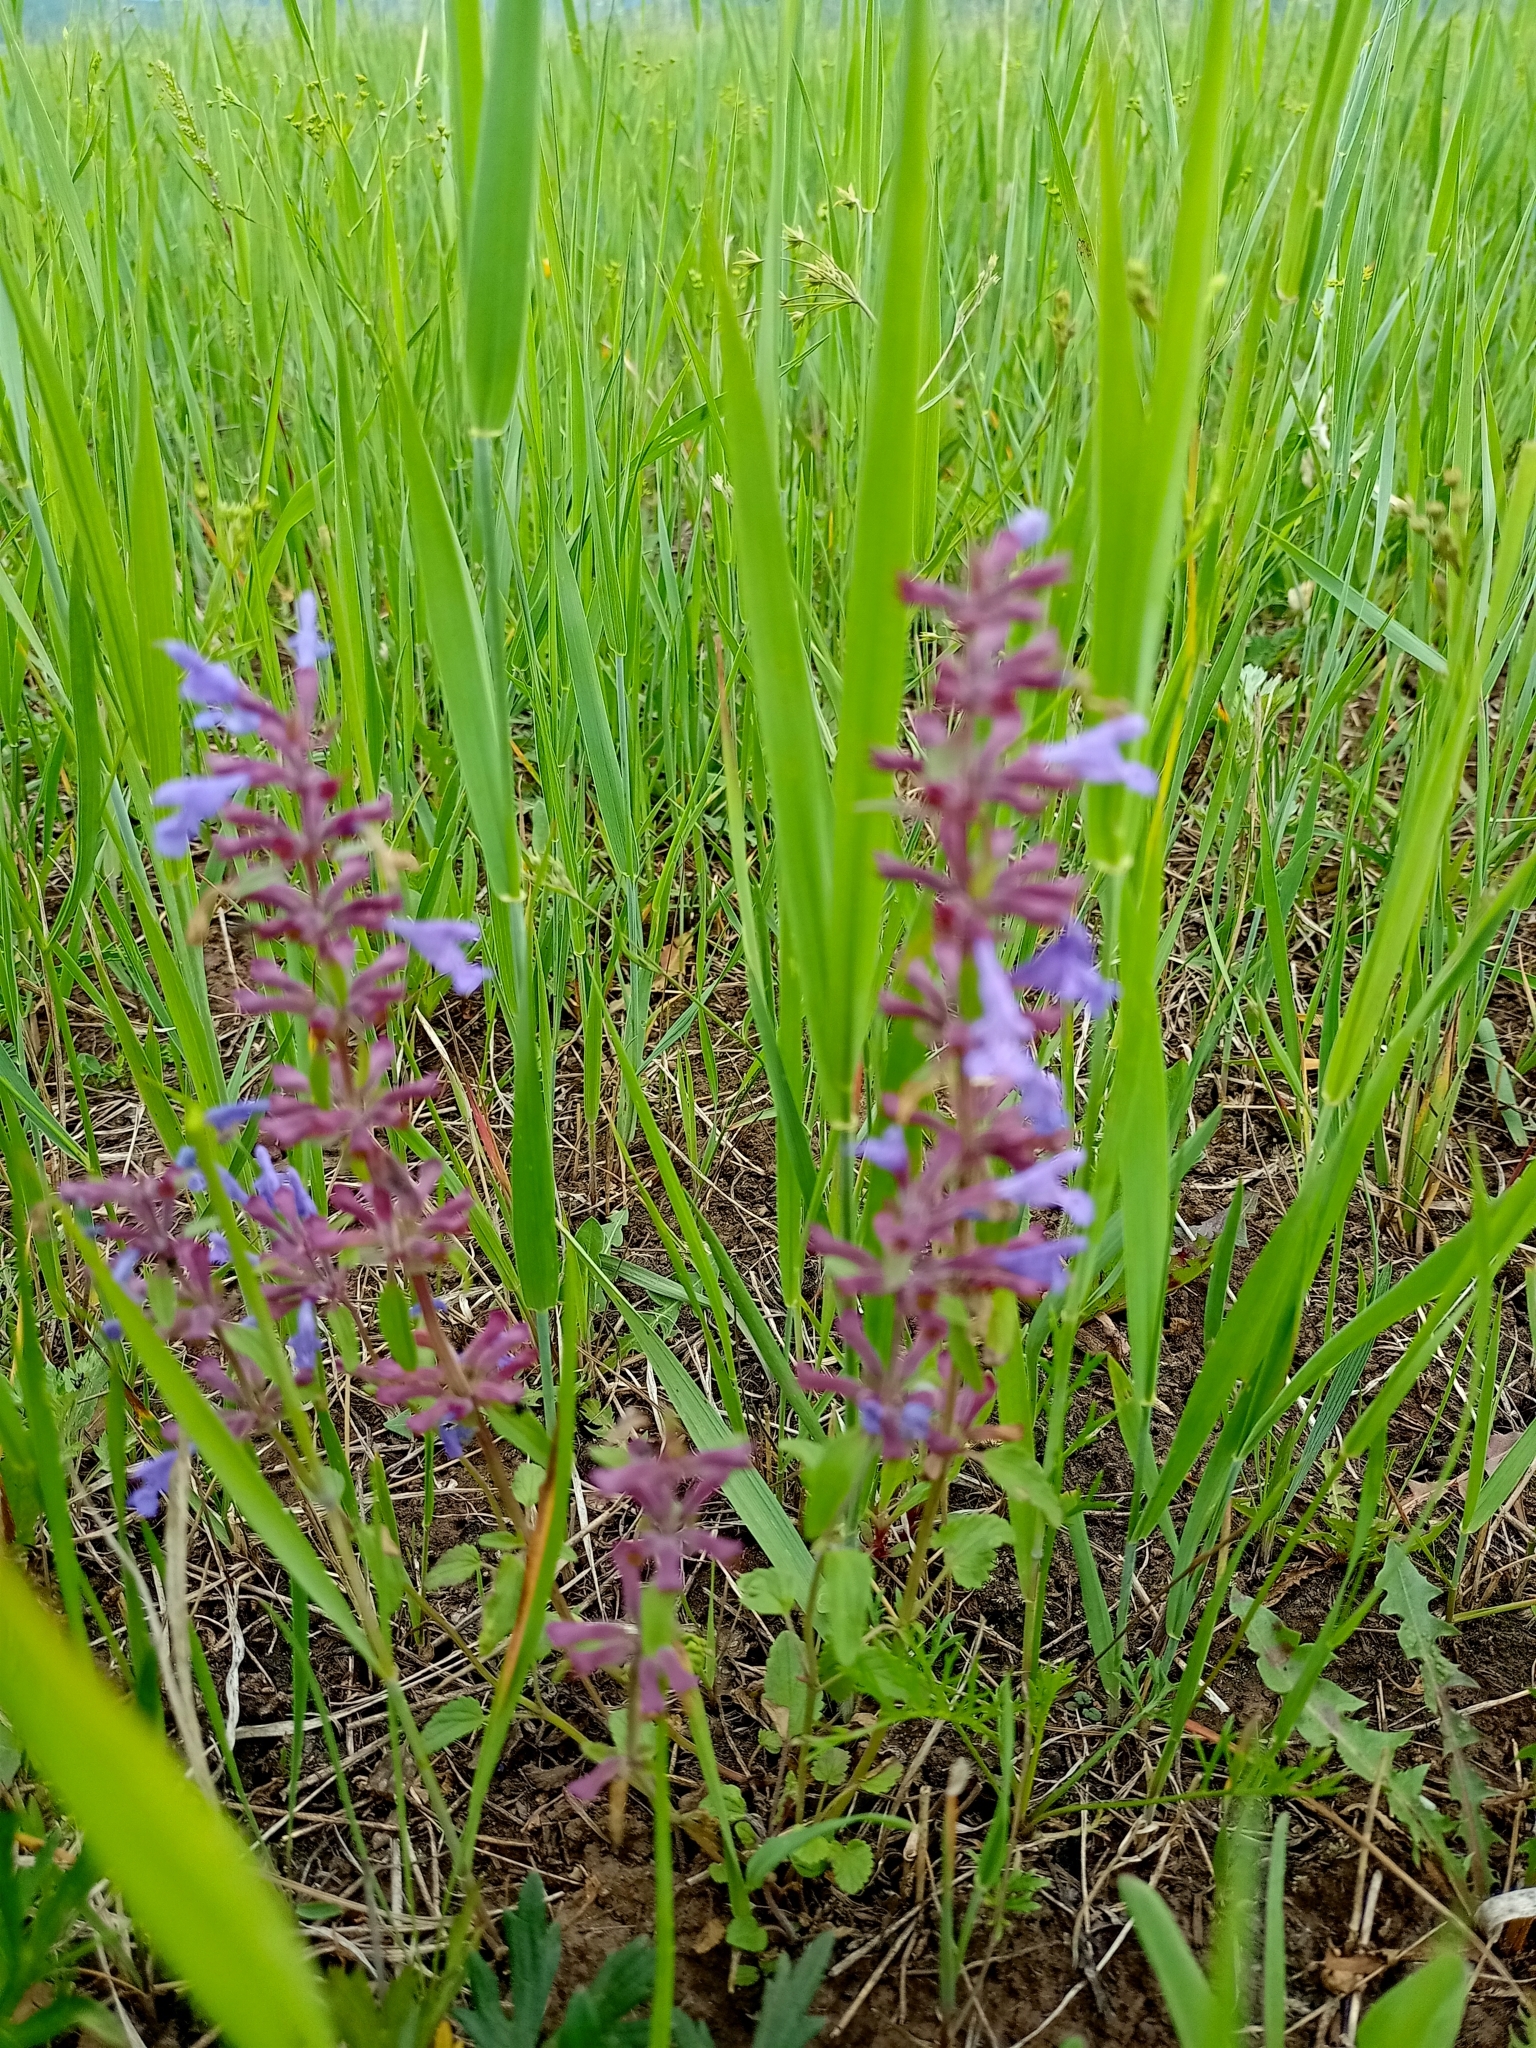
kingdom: Plantae
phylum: Tracheophyta
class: Magnoliopsida
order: Lamiales
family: Lamiaceae
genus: Dracocephalum
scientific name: Dracocephalum nutans
